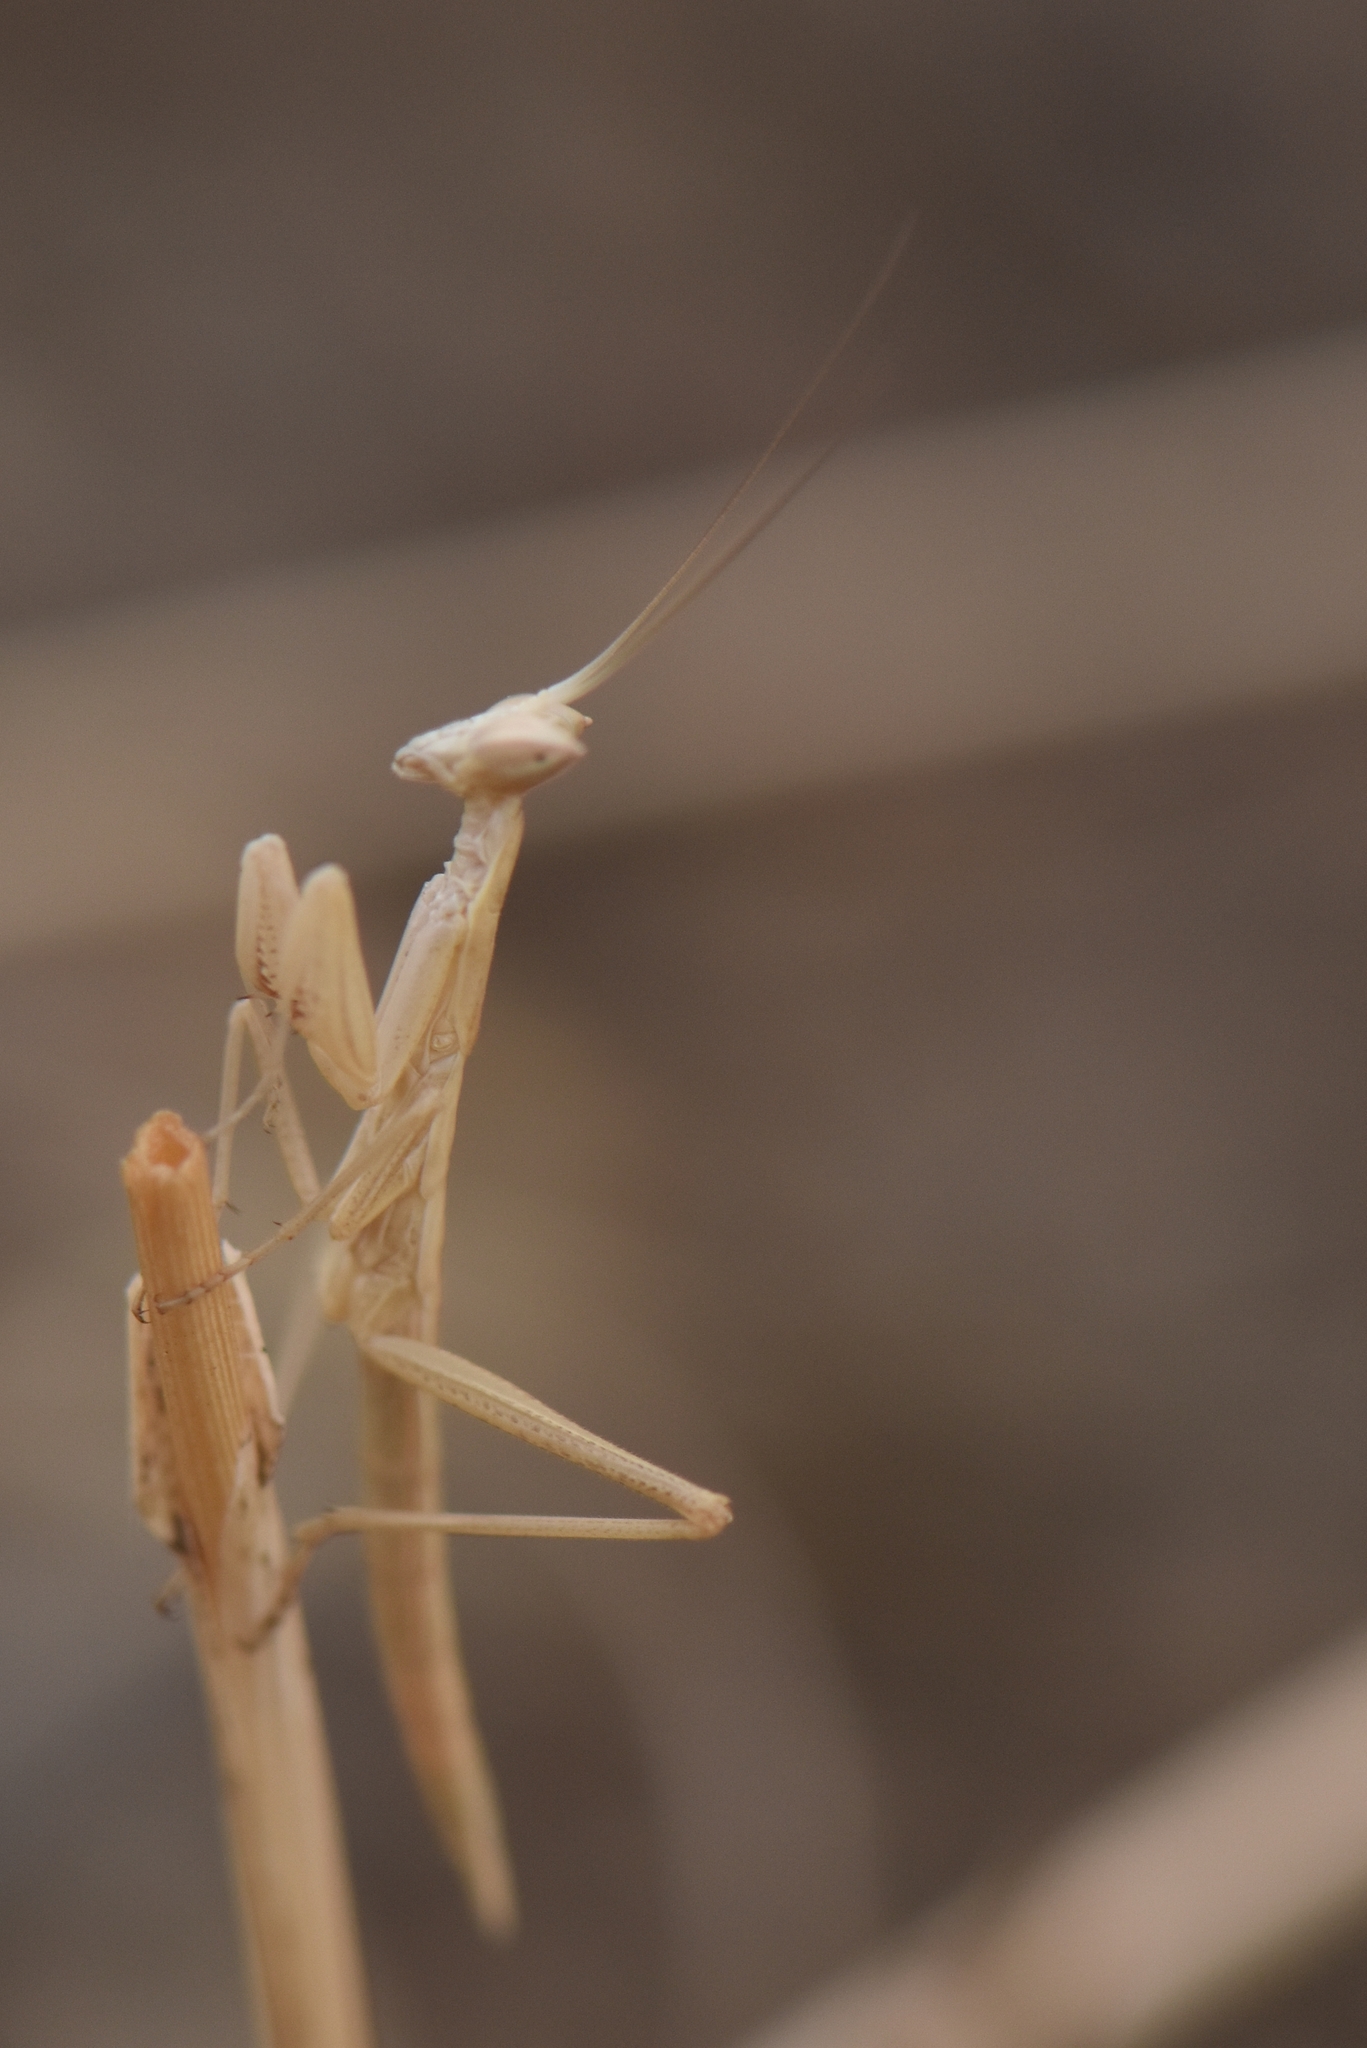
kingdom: Animalia
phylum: Arthropoda
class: Insecta
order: Mantodea
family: Amelidae
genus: Ameles
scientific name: Ameles picteti
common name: Pictet's dwarf mantis
